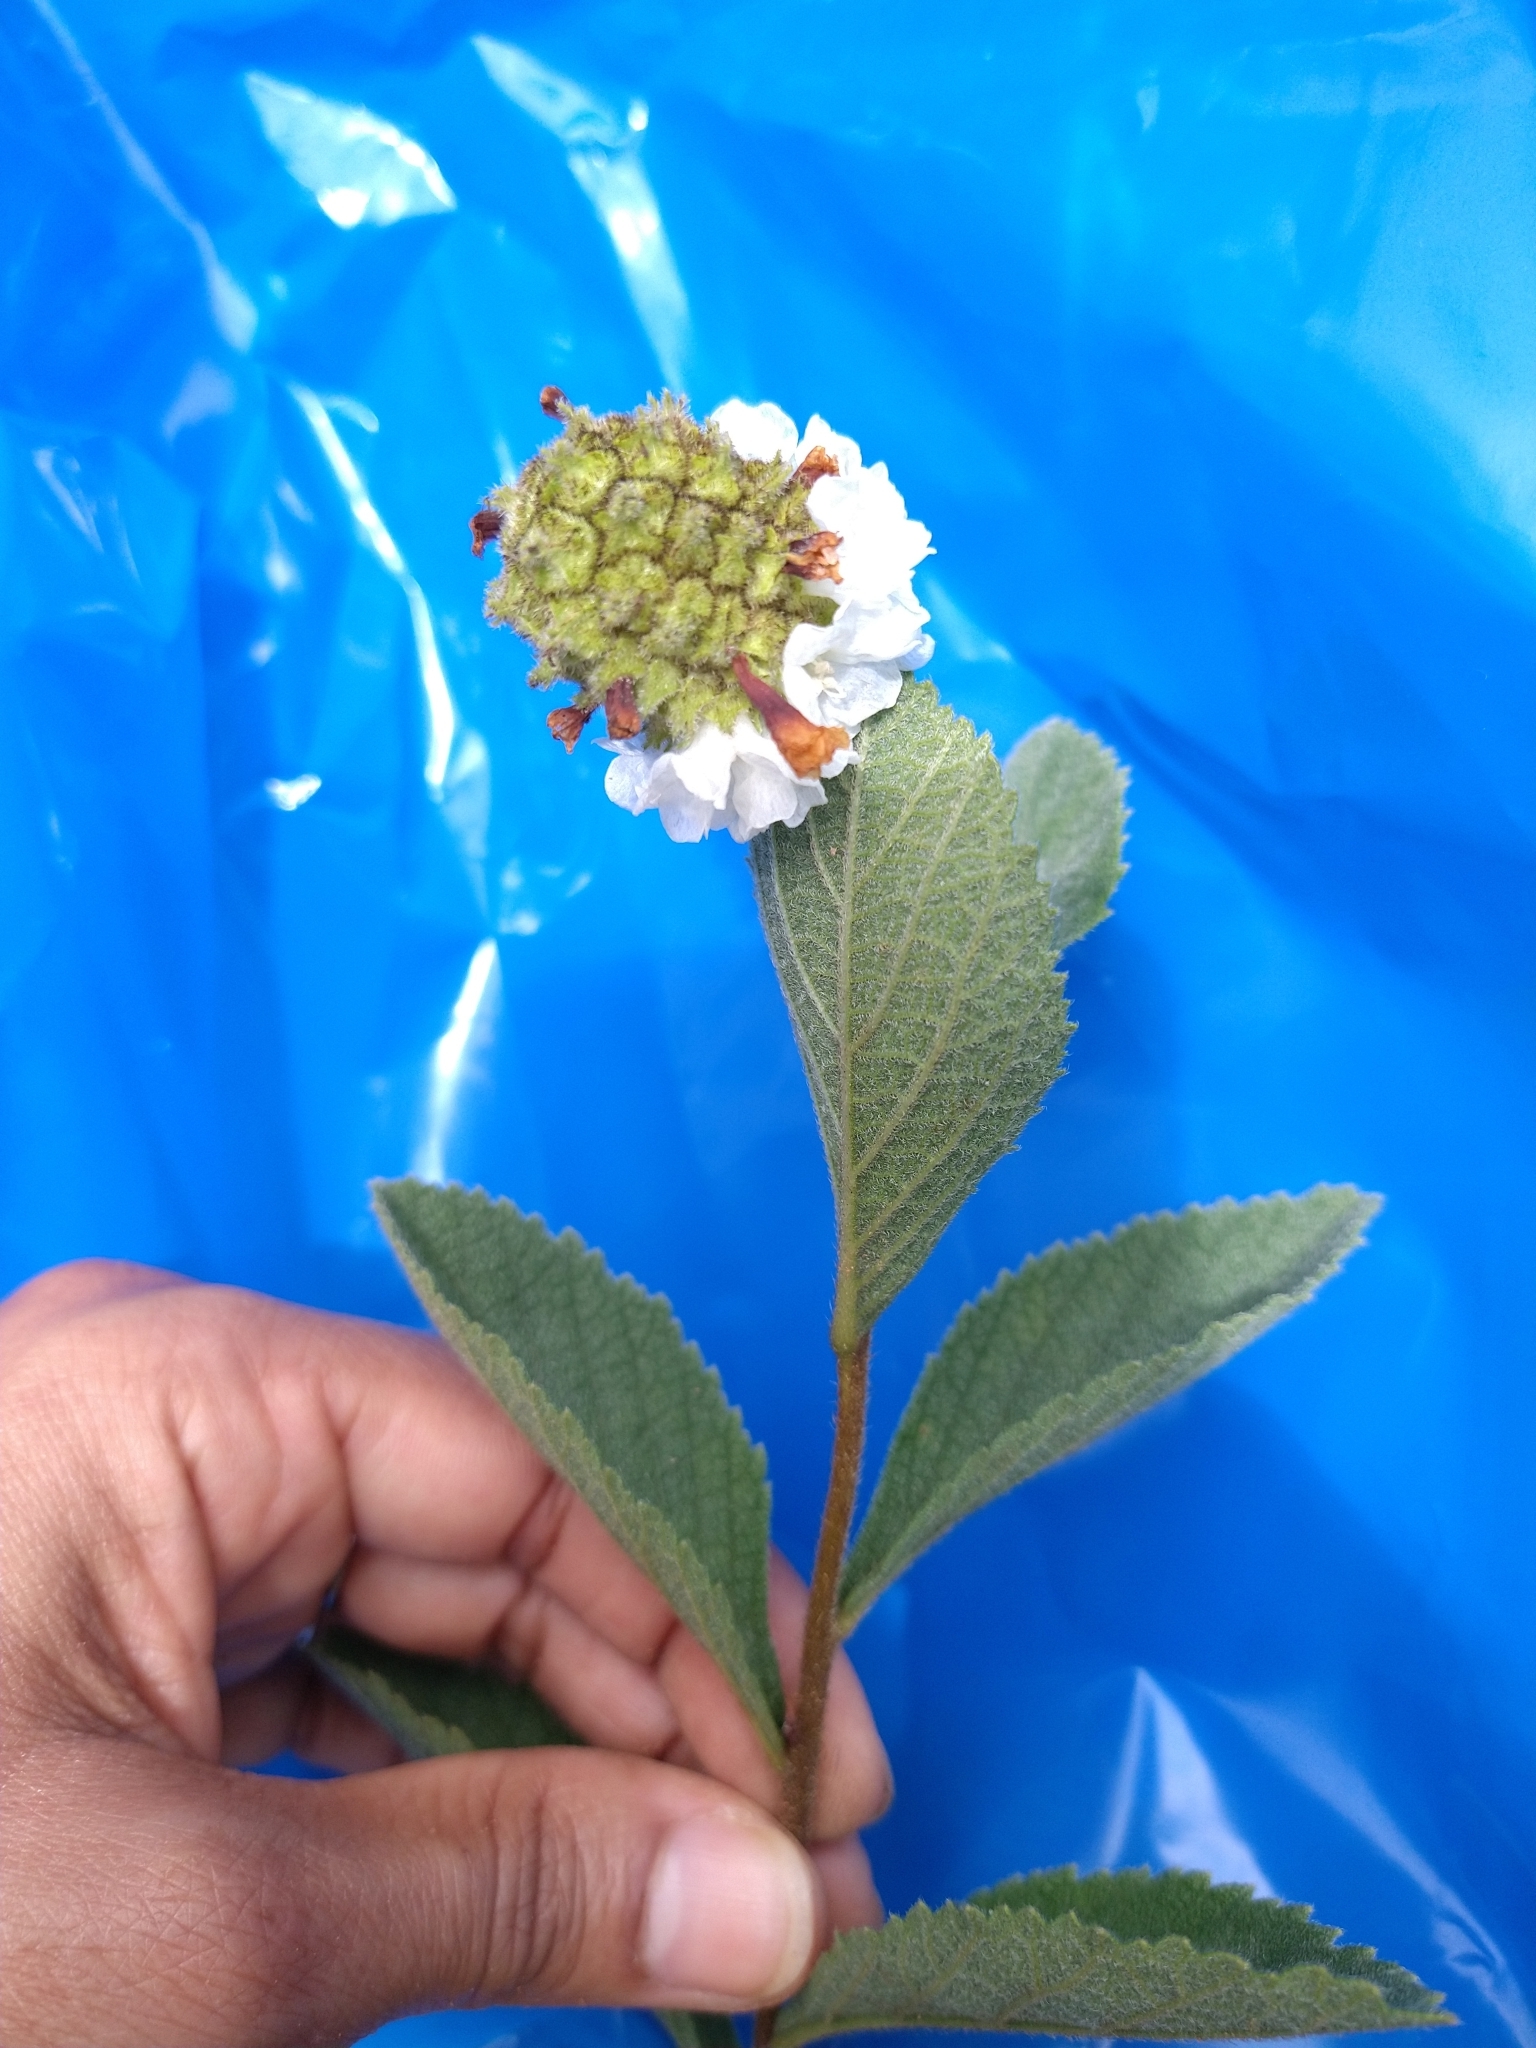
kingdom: Plantae
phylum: Tracheophyta
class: Magnoliopsida
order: Boraginales
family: Cordiaceae
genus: Varronia
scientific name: Varronia truncata
